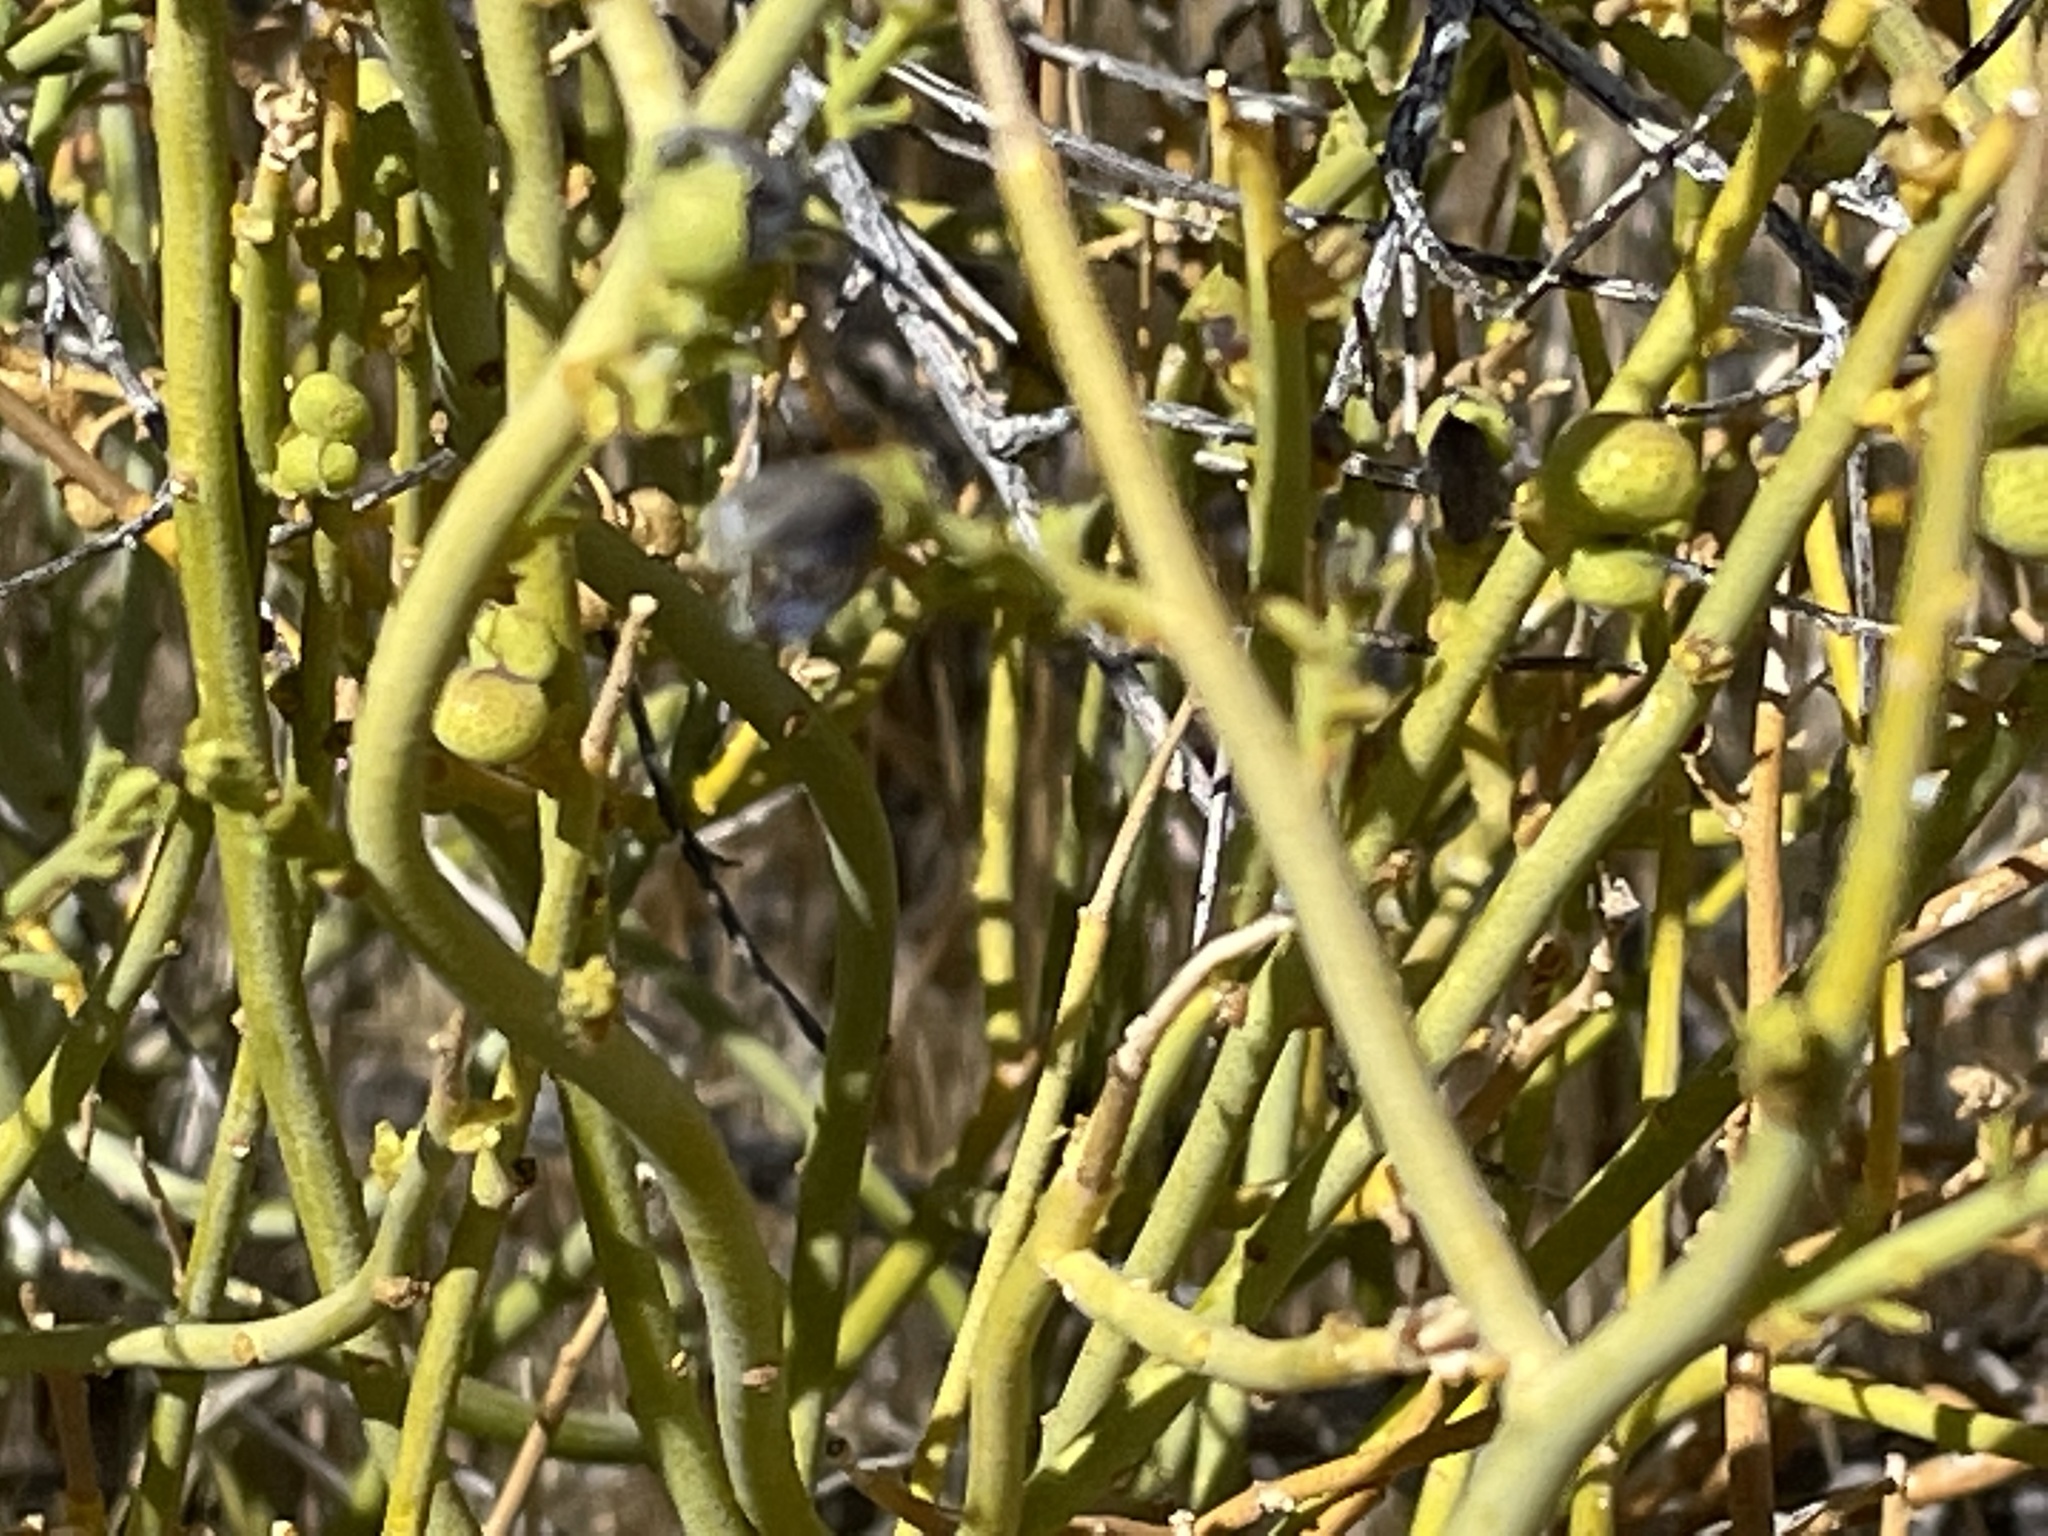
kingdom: Plantae
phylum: Tracheophyta
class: Magnoliopsida
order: Sapindales
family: Rutaceae
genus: Thamnosma
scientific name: Thamnosma montana
